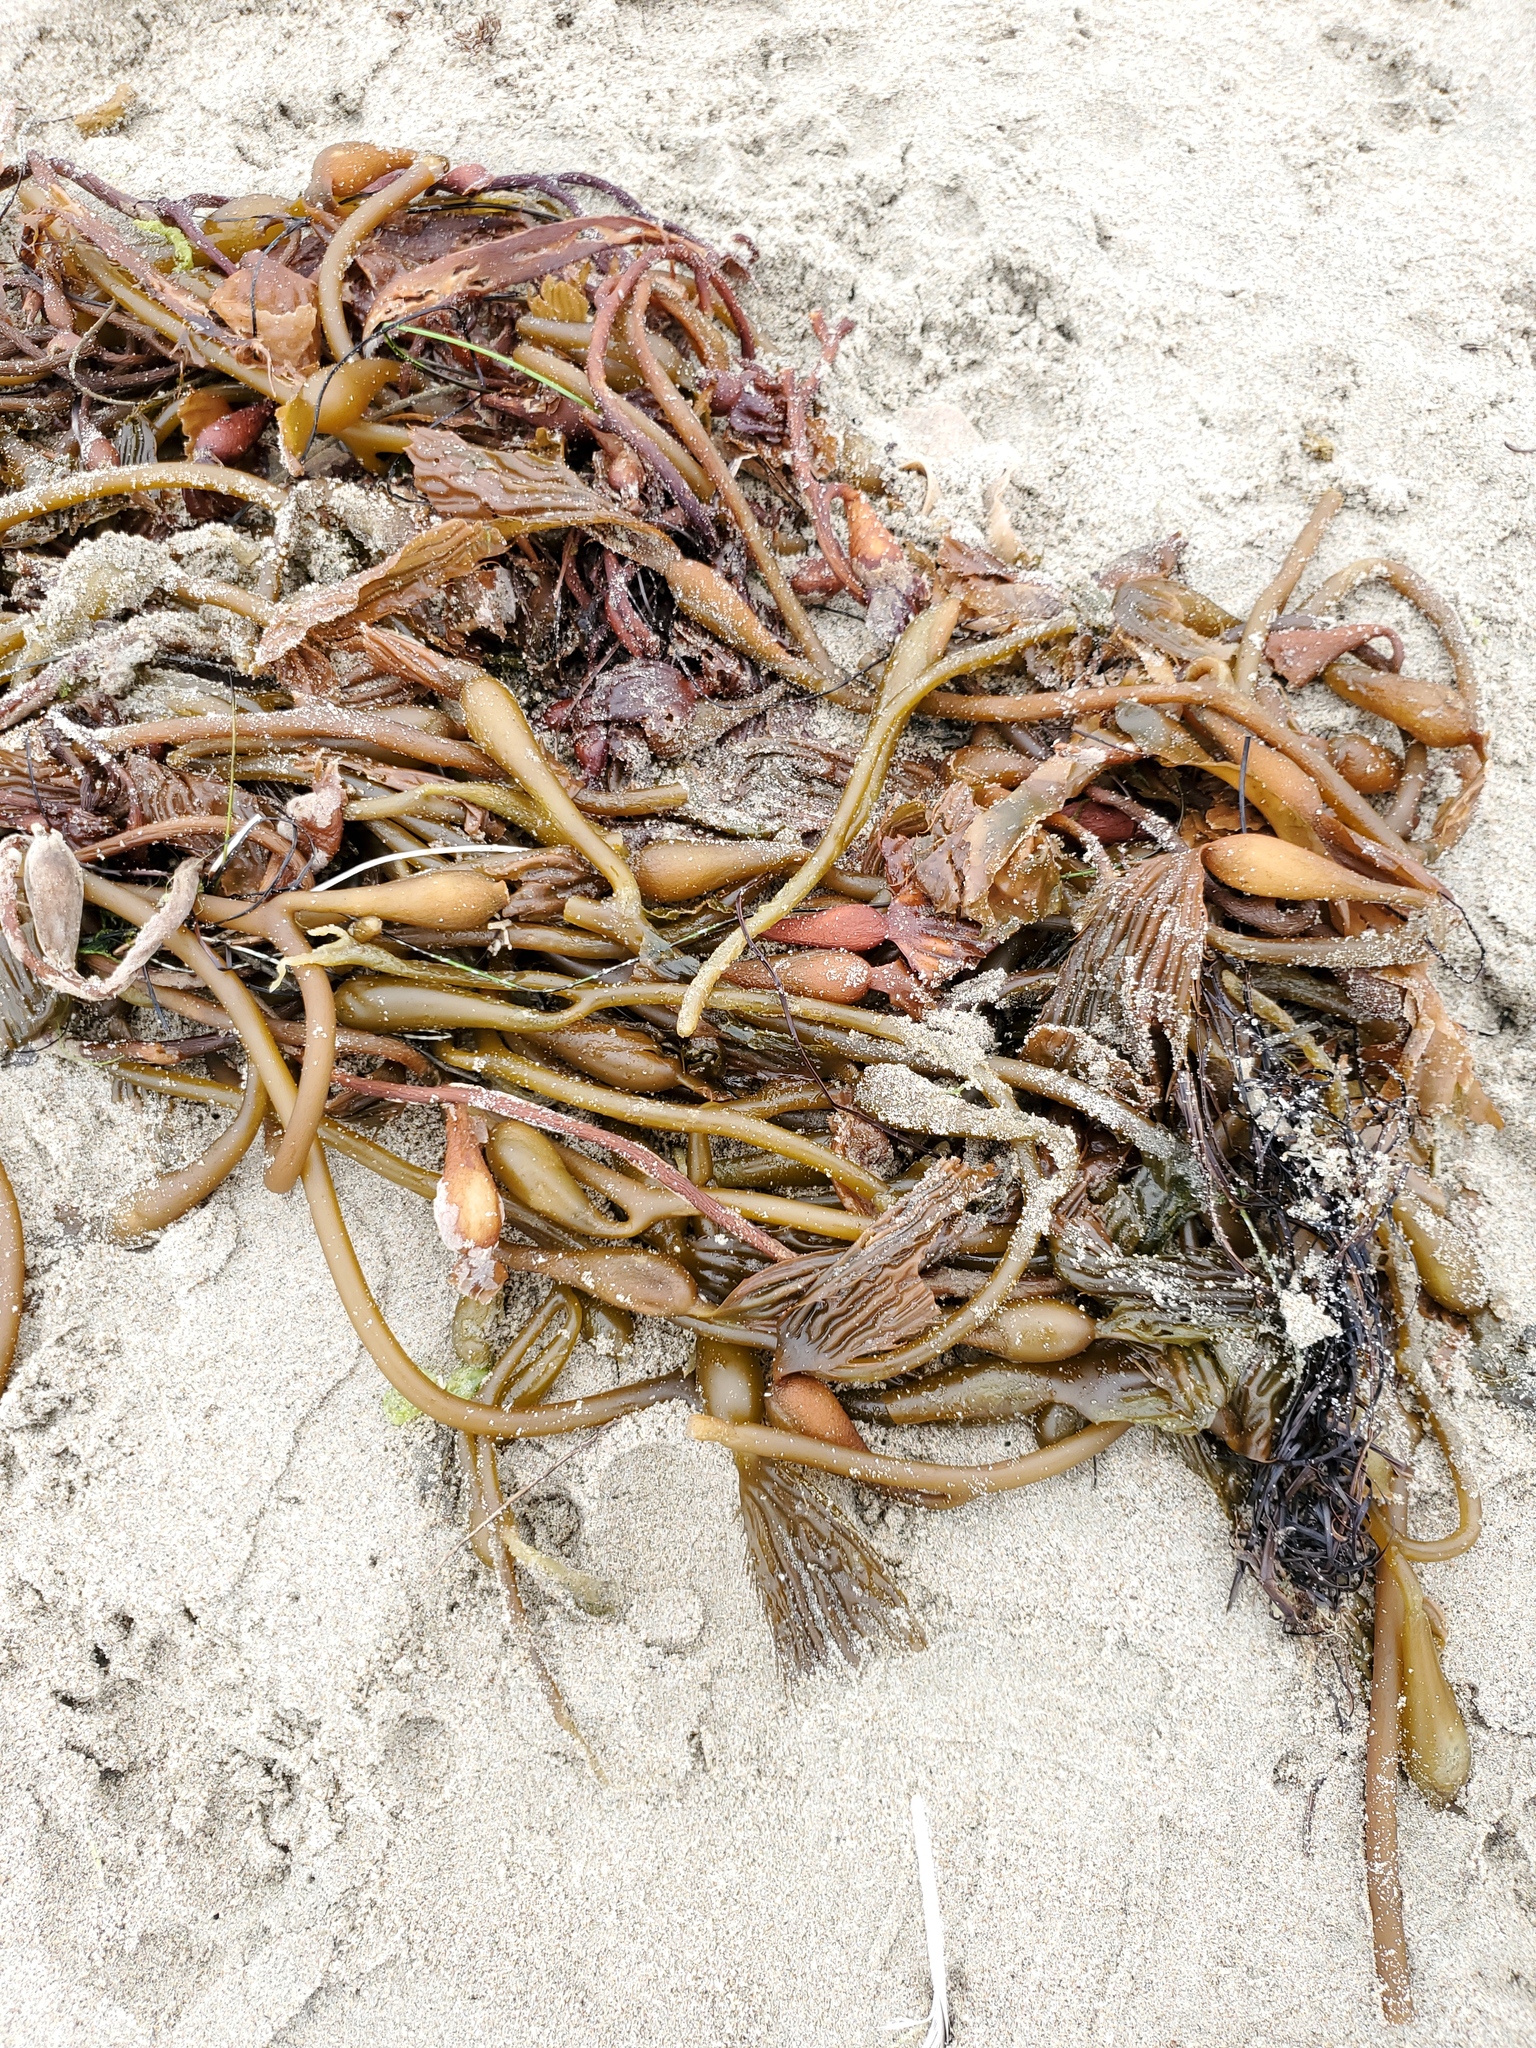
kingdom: Chromista
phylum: Ochrophyta
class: Phaeophyceae
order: Laminariales
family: Laminariaceae
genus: Macrocystis
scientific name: Macrocystis pyrifera
